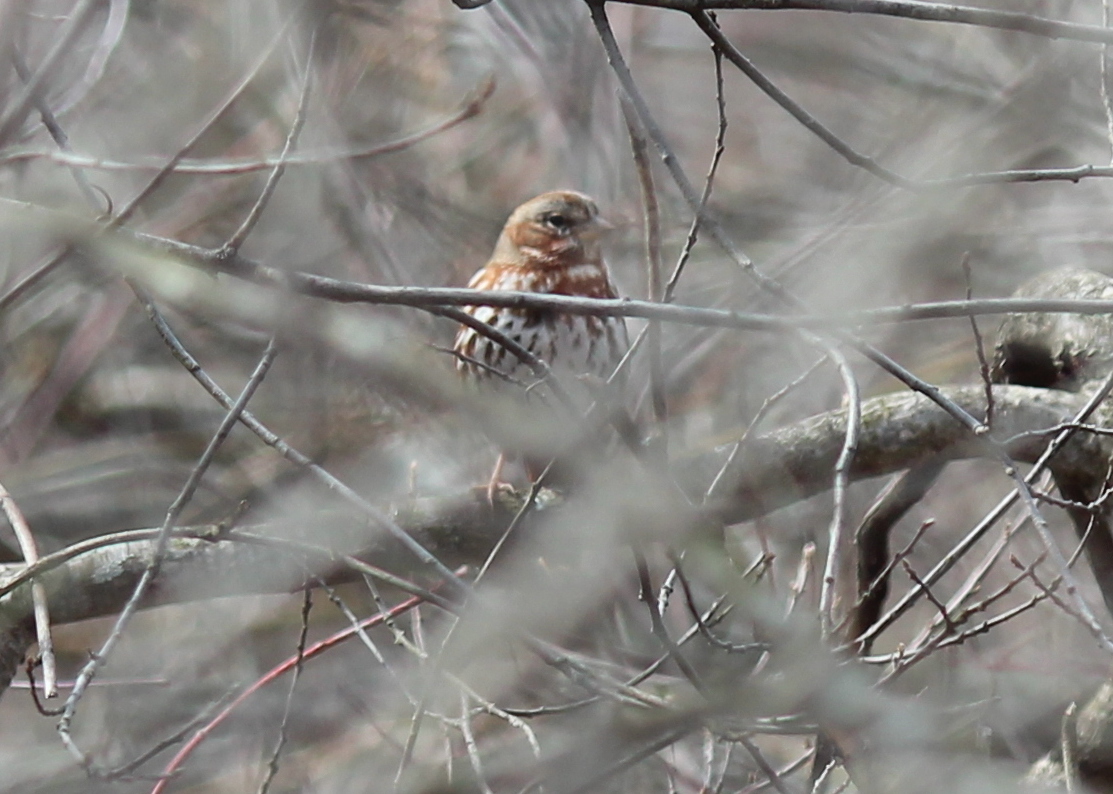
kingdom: Animalia
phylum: Chordata
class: Aves
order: Passeriformes
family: Passerellidae
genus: Passerella
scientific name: Passerella iliaca
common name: Fox sparrow
